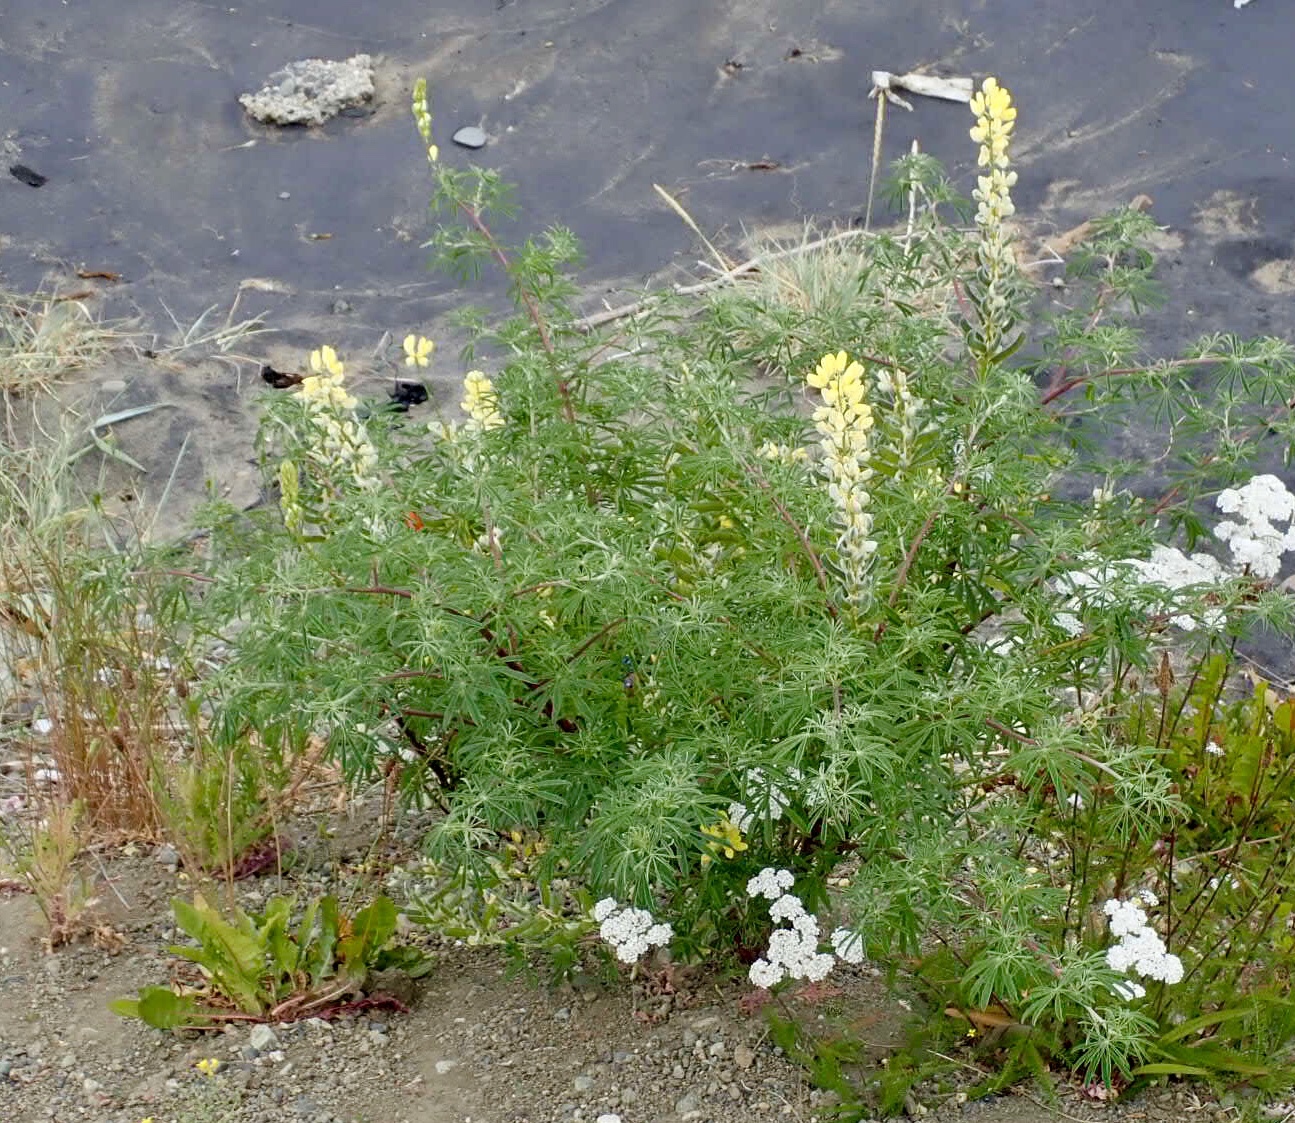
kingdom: Plantae
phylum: Tracheophyta
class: Magnoliopsida
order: Fabales
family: Fabaceae
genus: Lupinus
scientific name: Lupinus arboreus
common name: Yellow bush lupine
